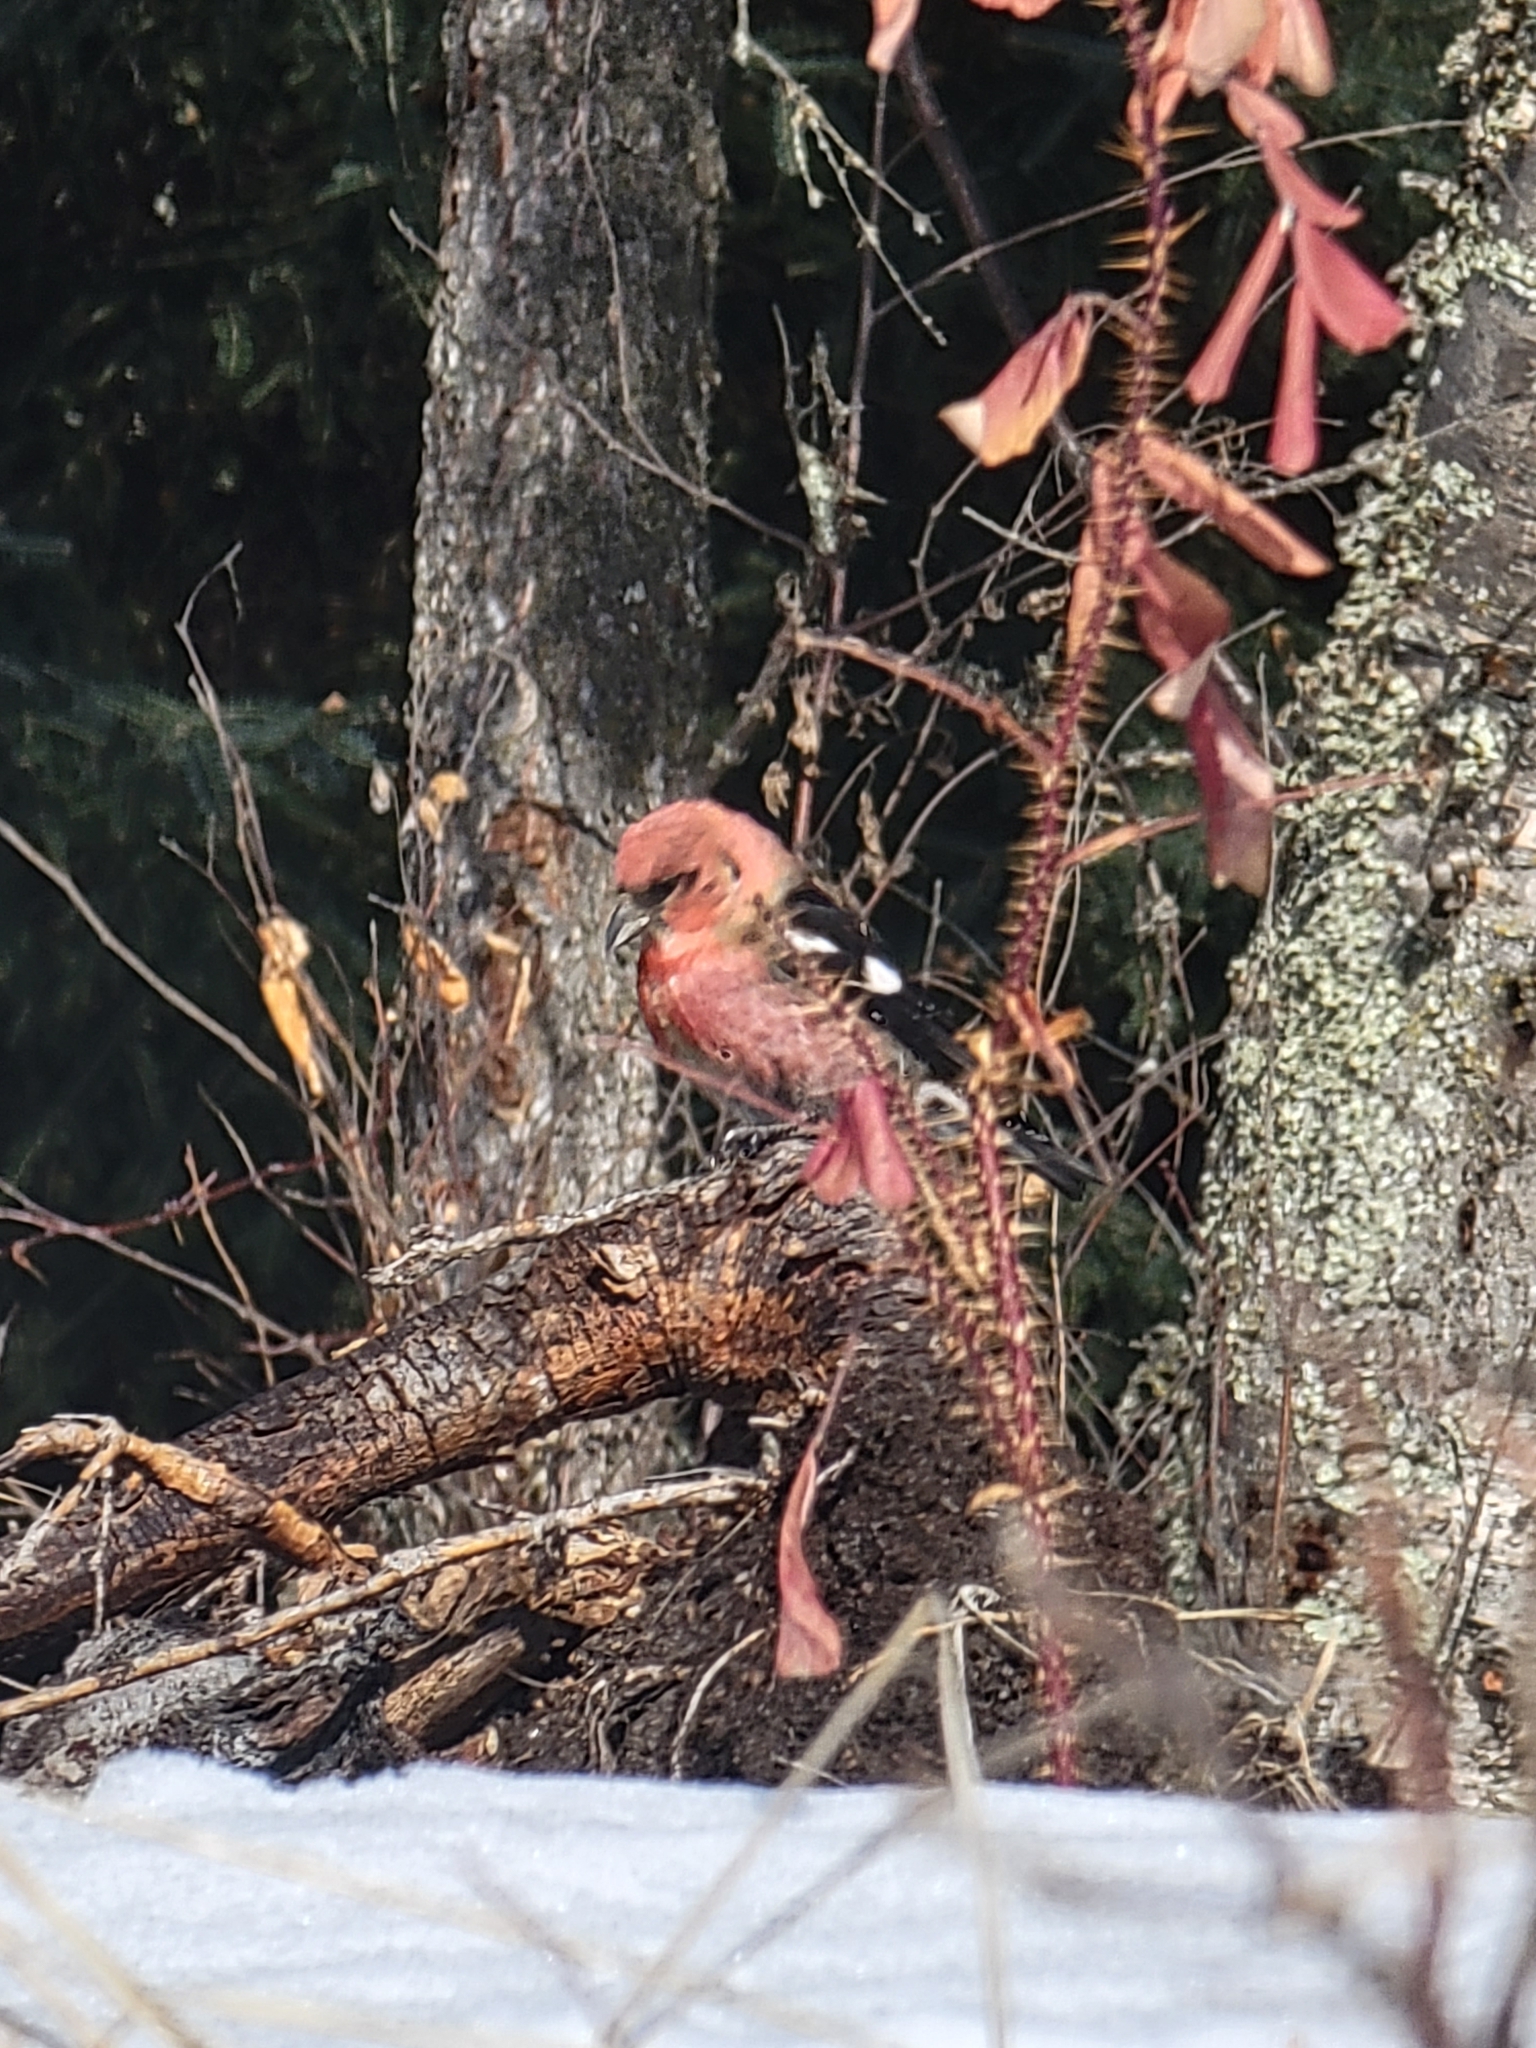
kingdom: Animalia
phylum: Chordata
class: Aves
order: Passeriformes
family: Fringillidae
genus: Loxia
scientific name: Loxia leucoptera
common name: Two-barred crossbill
